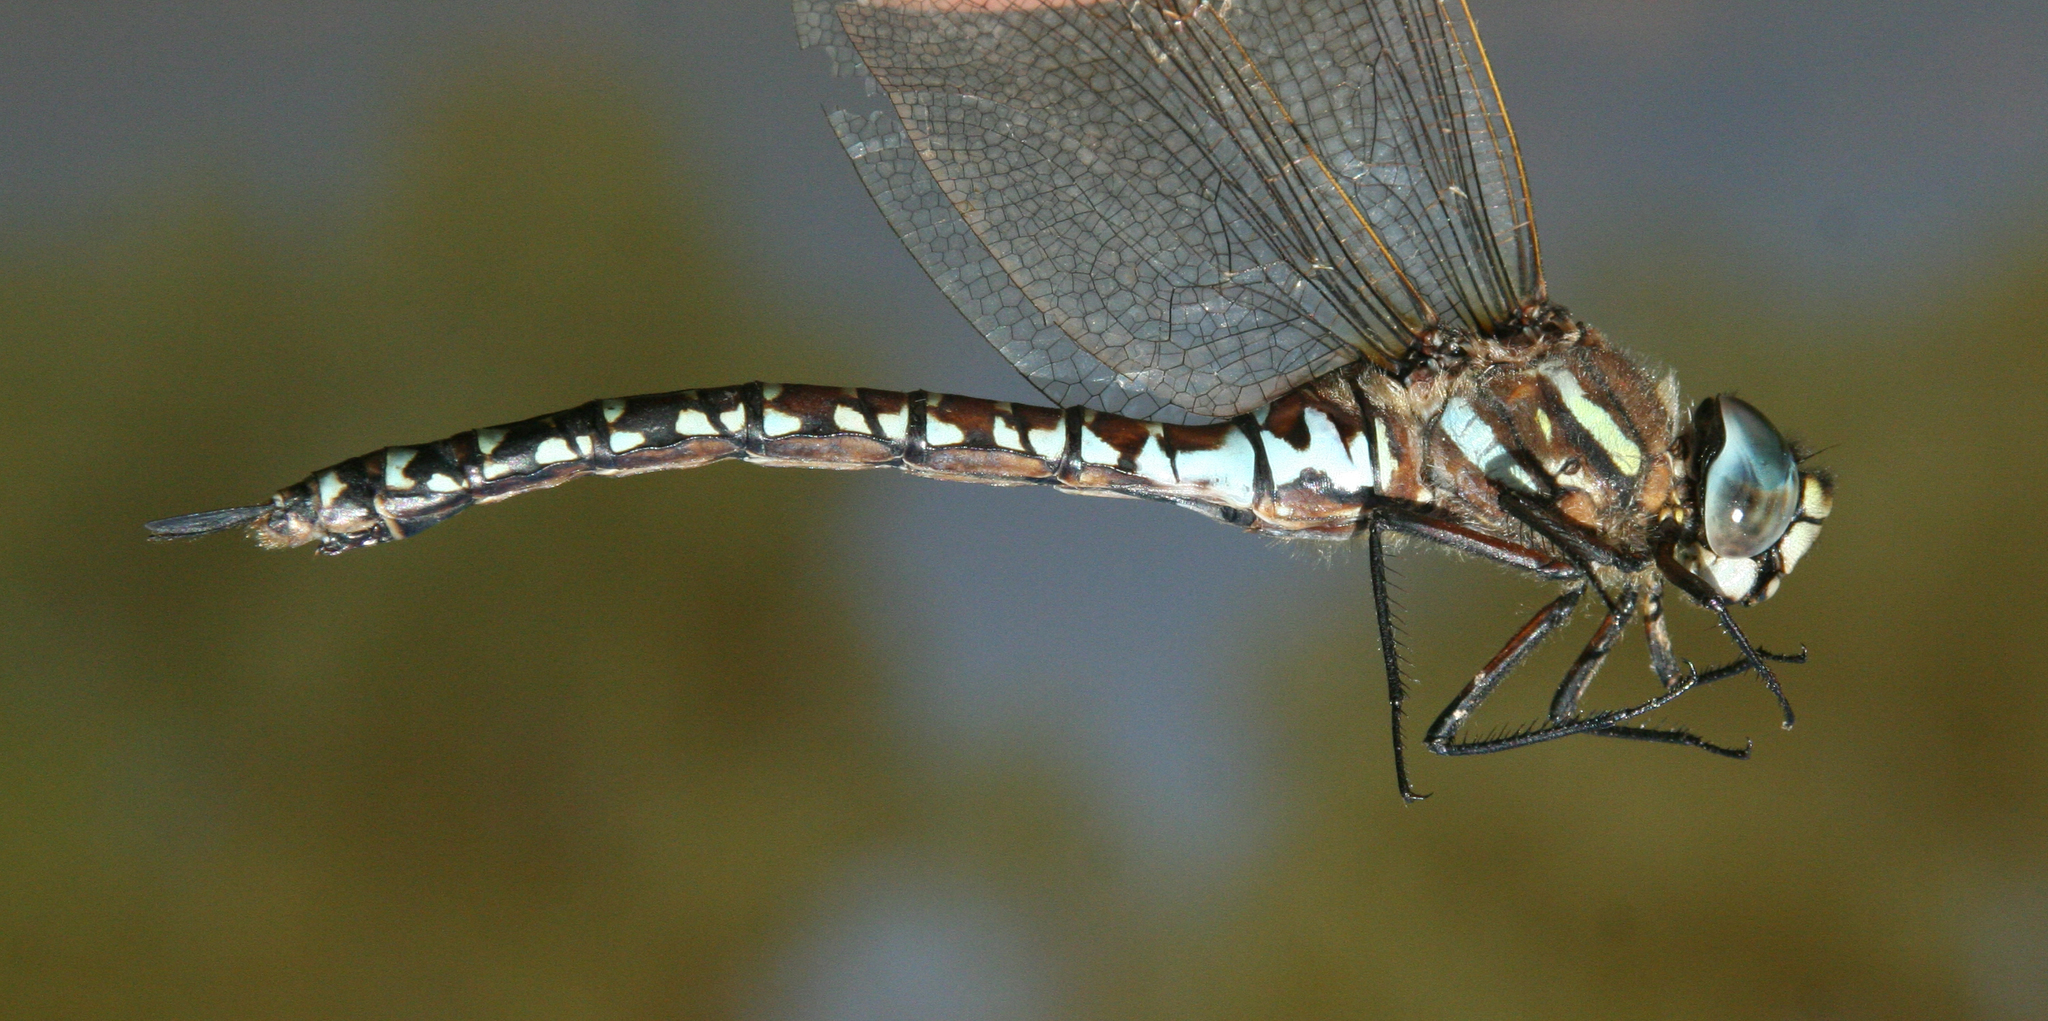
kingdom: Animalia
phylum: Arthropoda
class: Insecta
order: Odonata
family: Aeshnidae
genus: Aeshna
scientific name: Aeshna subarctica
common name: Subarctic darner
